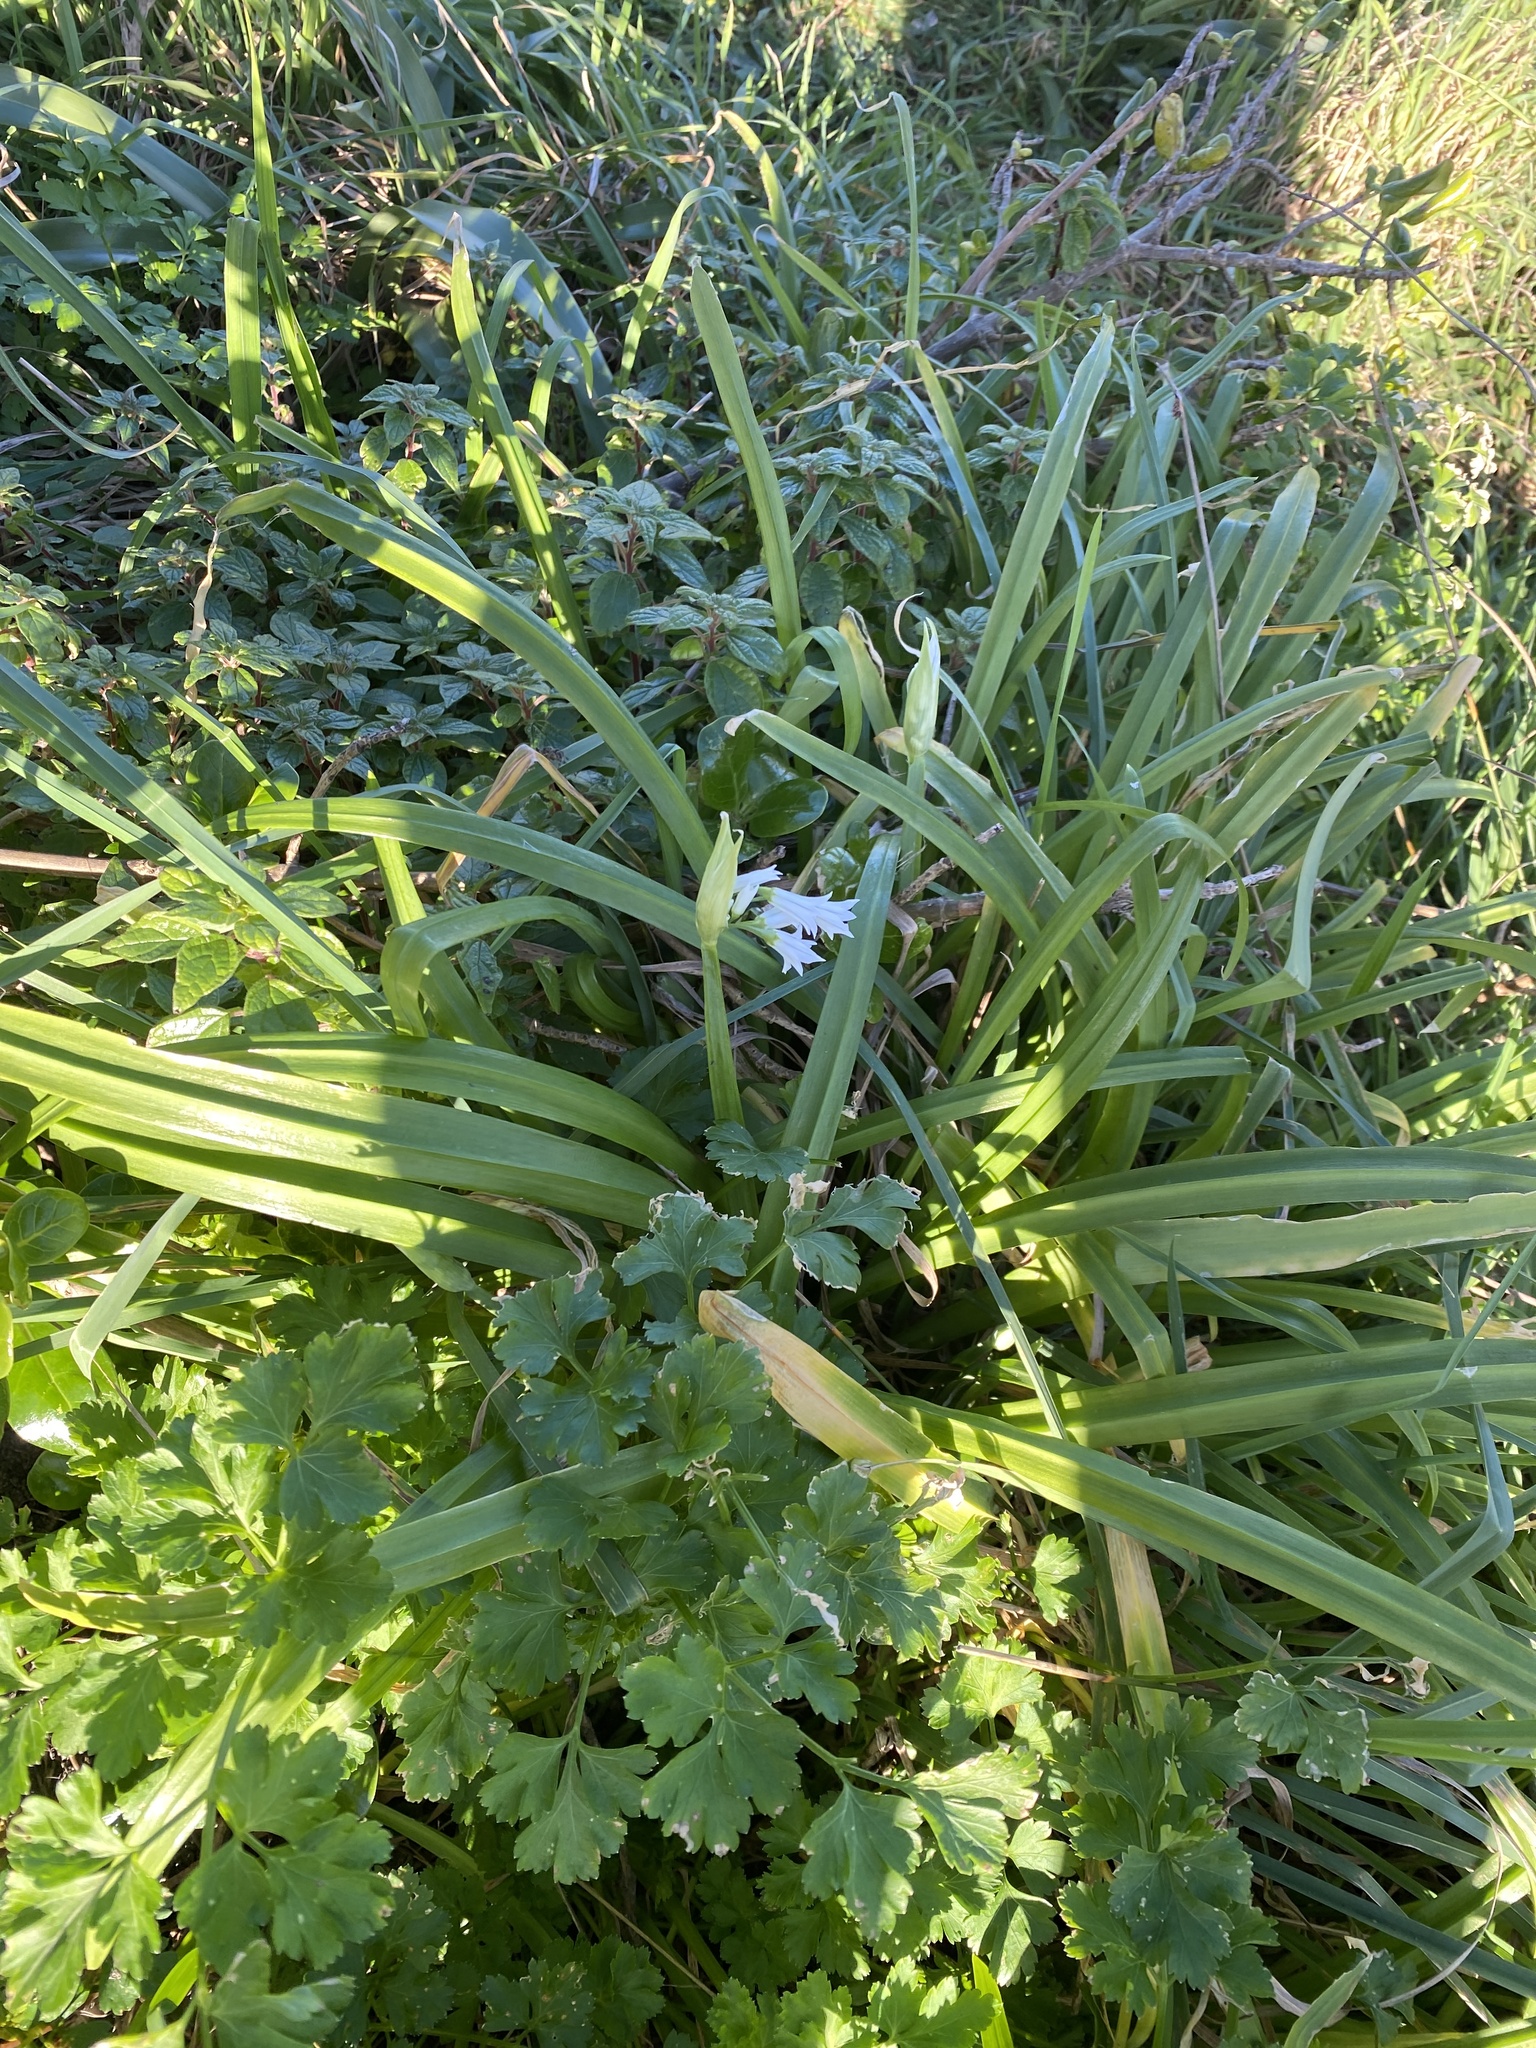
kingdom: Plantae
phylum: Tracheophyta
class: Liliopsida
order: Asparagales
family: Amaryllidaceae
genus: Allium
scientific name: Allium triquetrum
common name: Three-cornered garlic
